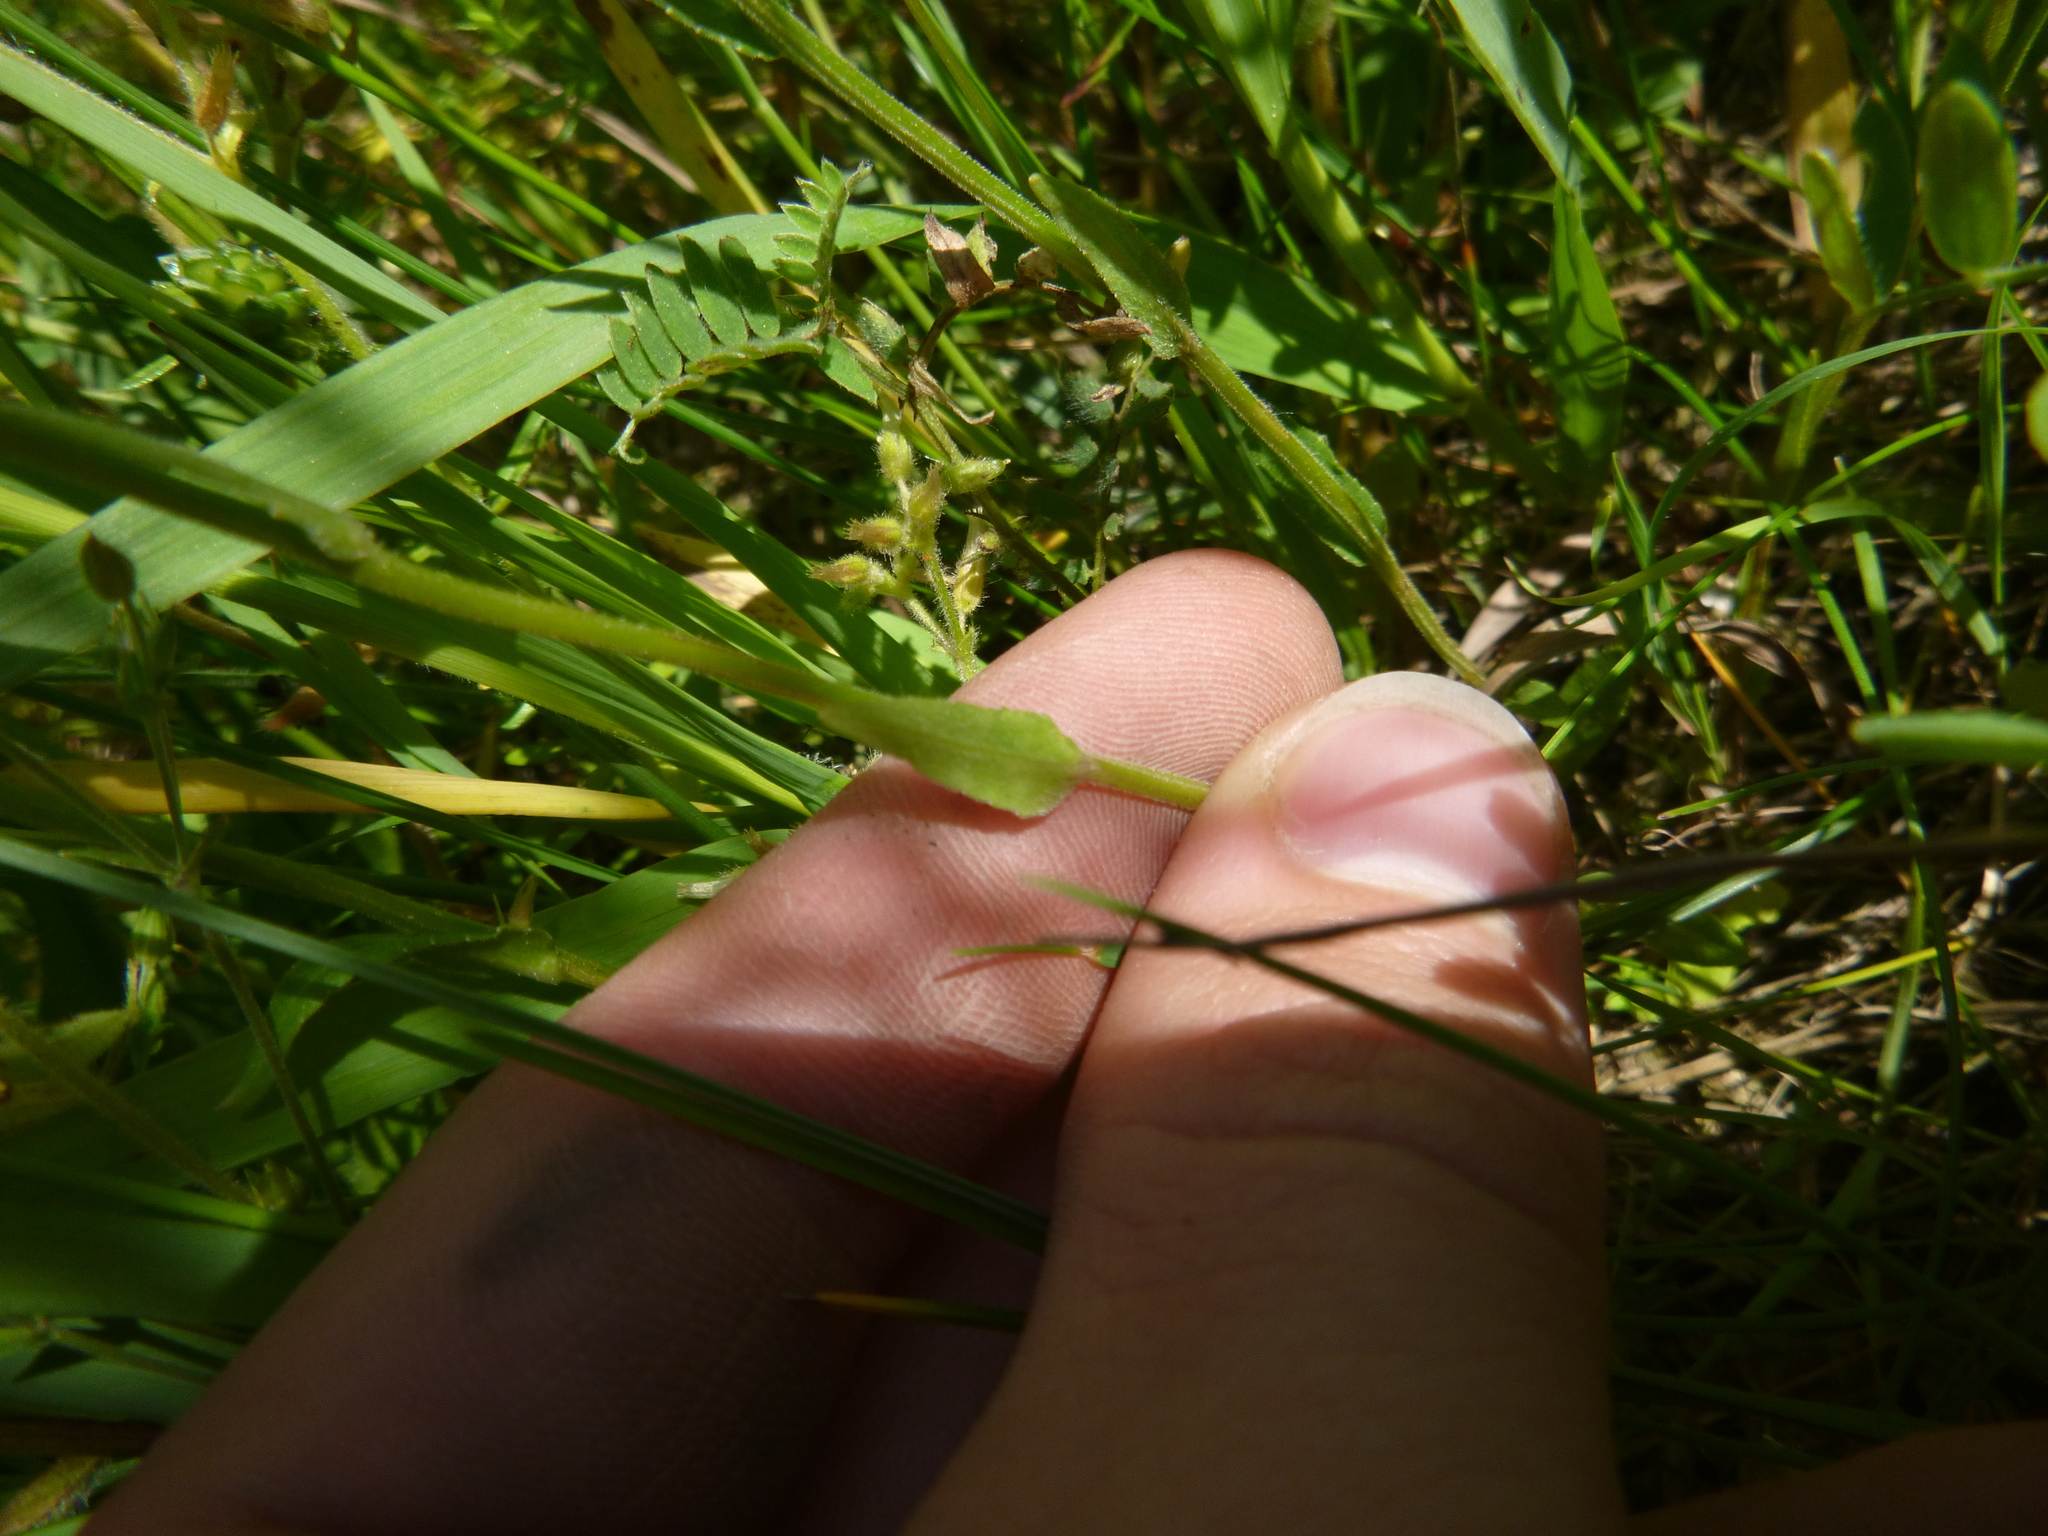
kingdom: Plantae
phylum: Tracheophyta
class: Magnoliopsida
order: Asterales
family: Campanulaceae
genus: Campanula
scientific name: Campanula patula
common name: Spreading bellflower
